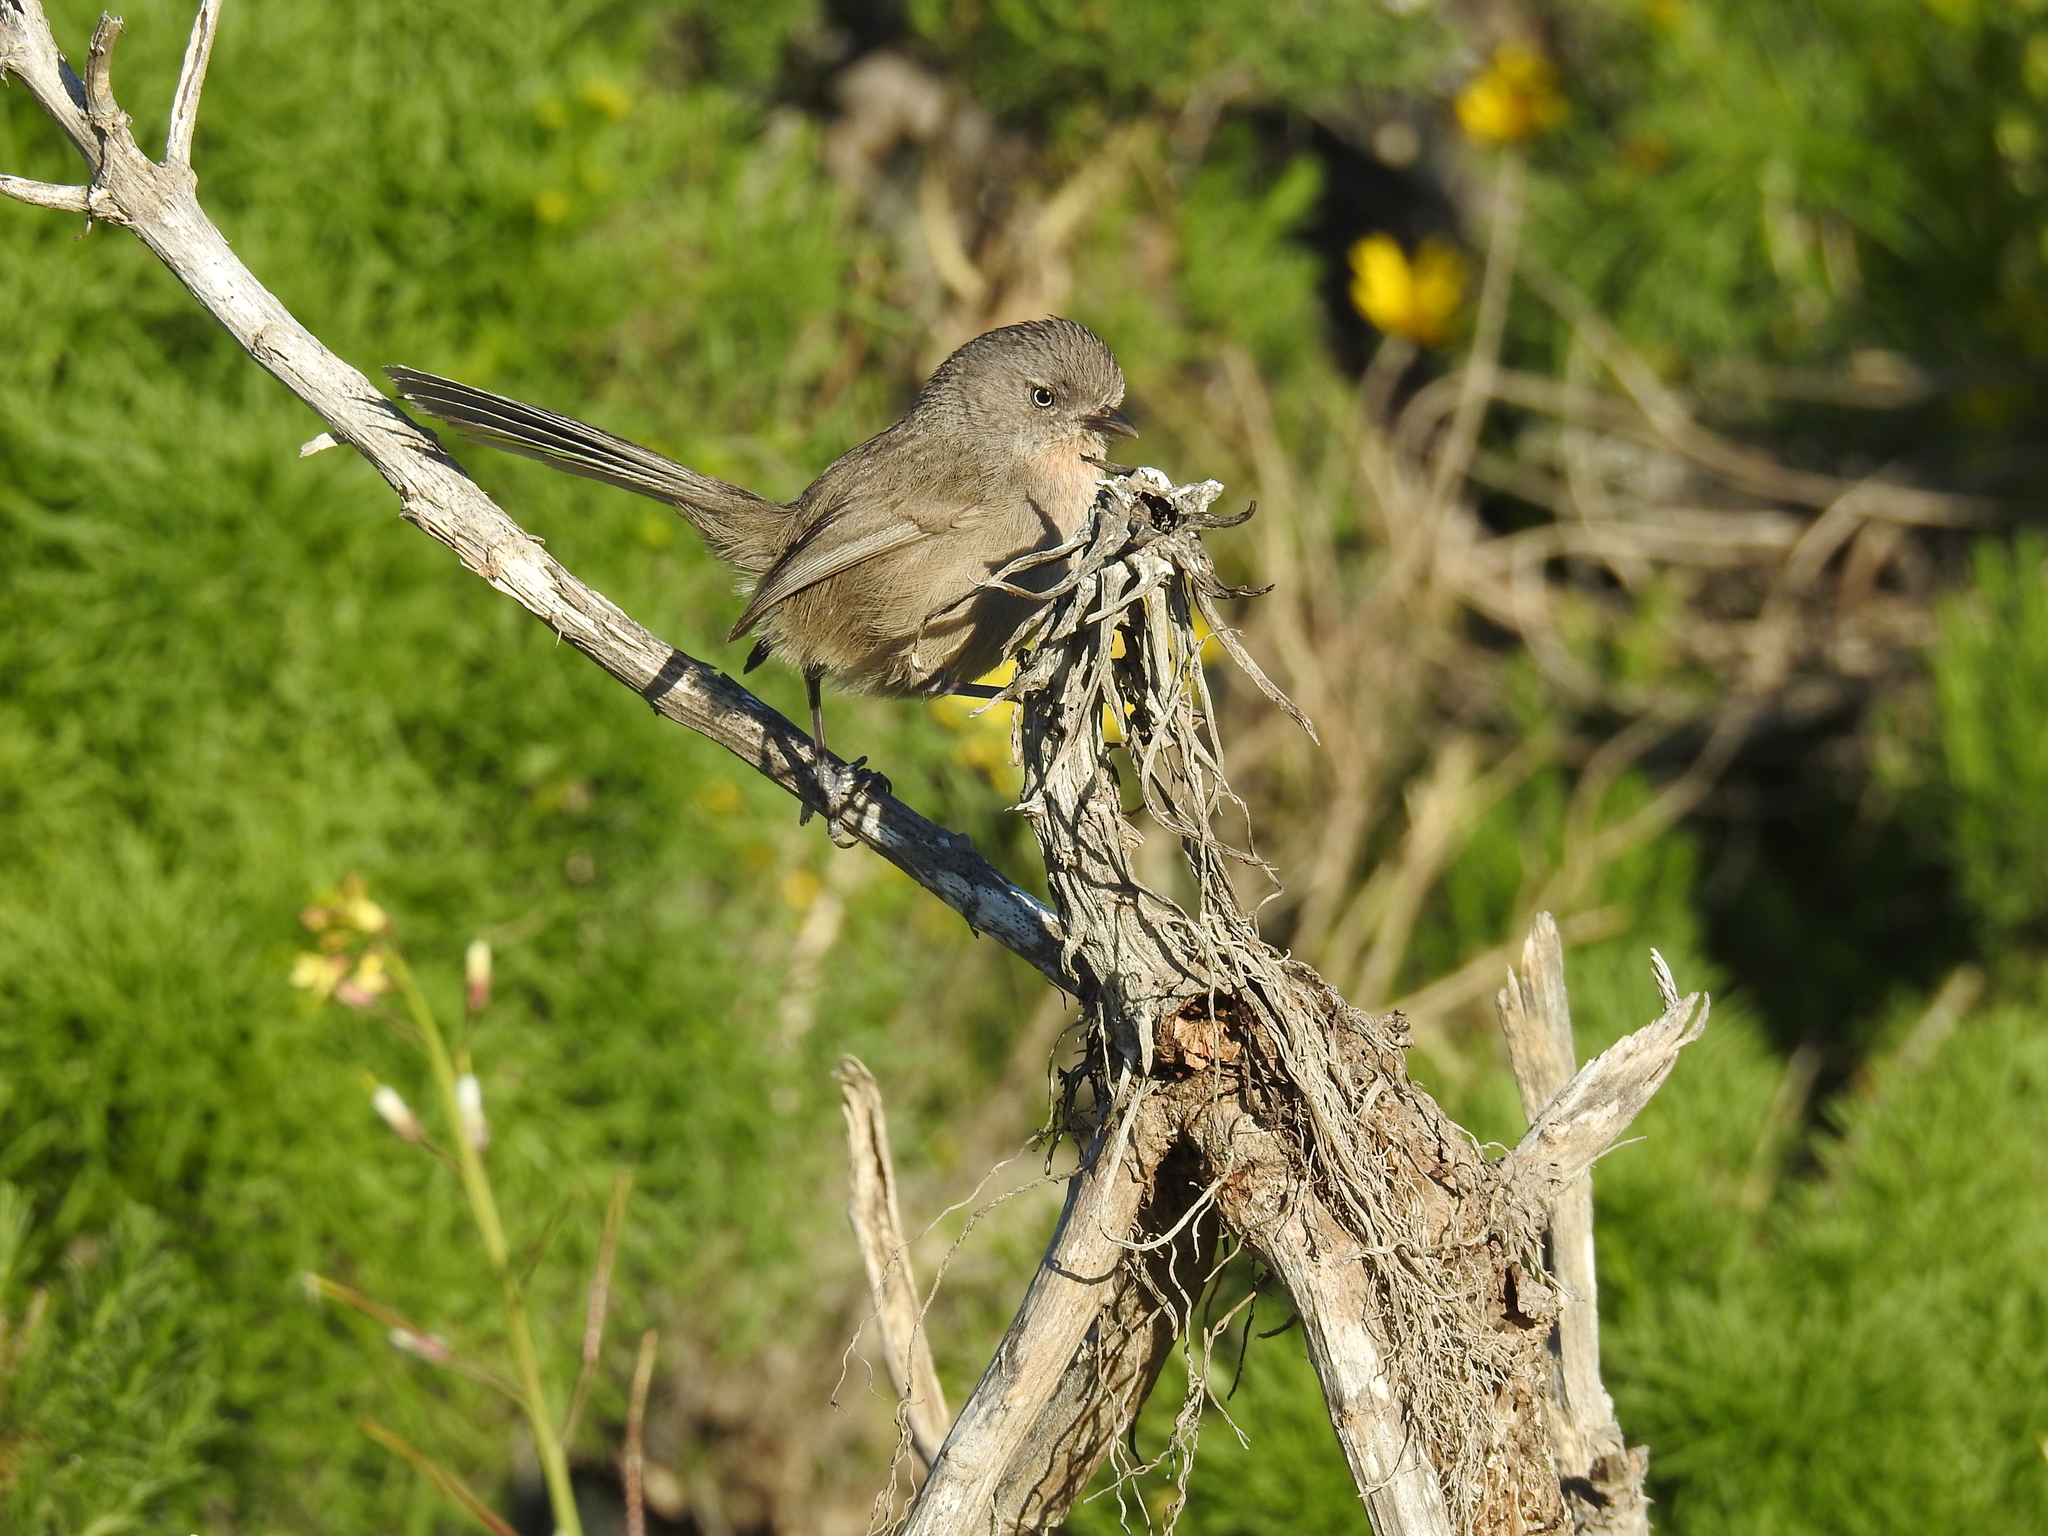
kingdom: Animalia
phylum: Chordata
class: Aves
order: Passeriformes
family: Sylviidae
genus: Chamaea
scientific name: Chamaea fasciata
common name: Wrentit
